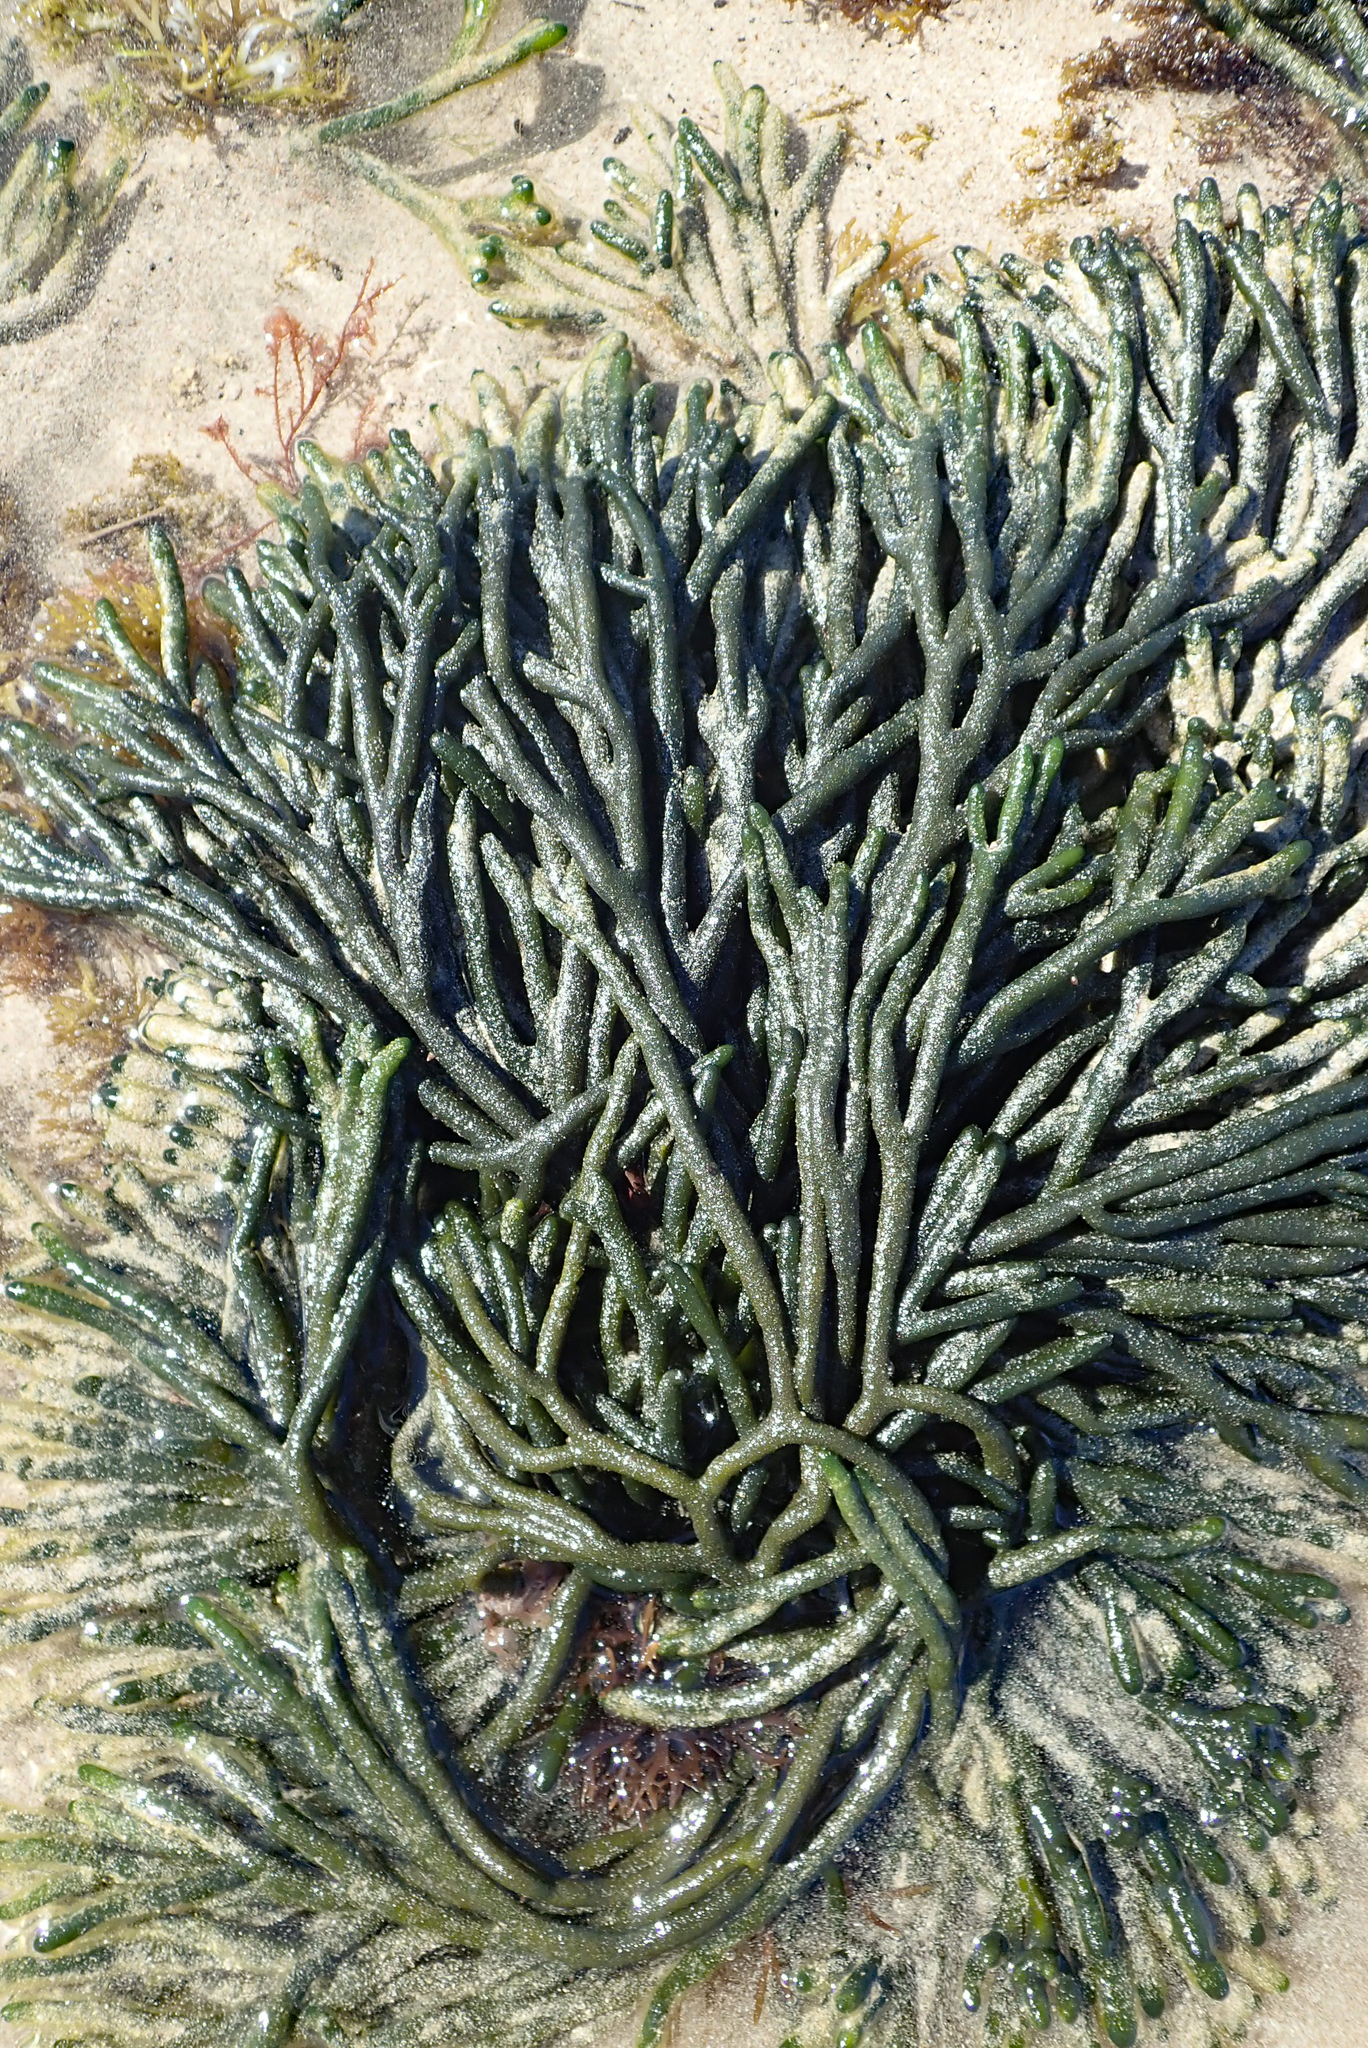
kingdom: Plantae
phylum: Chlorophyta
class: Ulvophyceae
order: Bryopsidales
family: Codiaceae
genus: Codium
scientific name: Codium fragile
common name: Dead man's fingers
